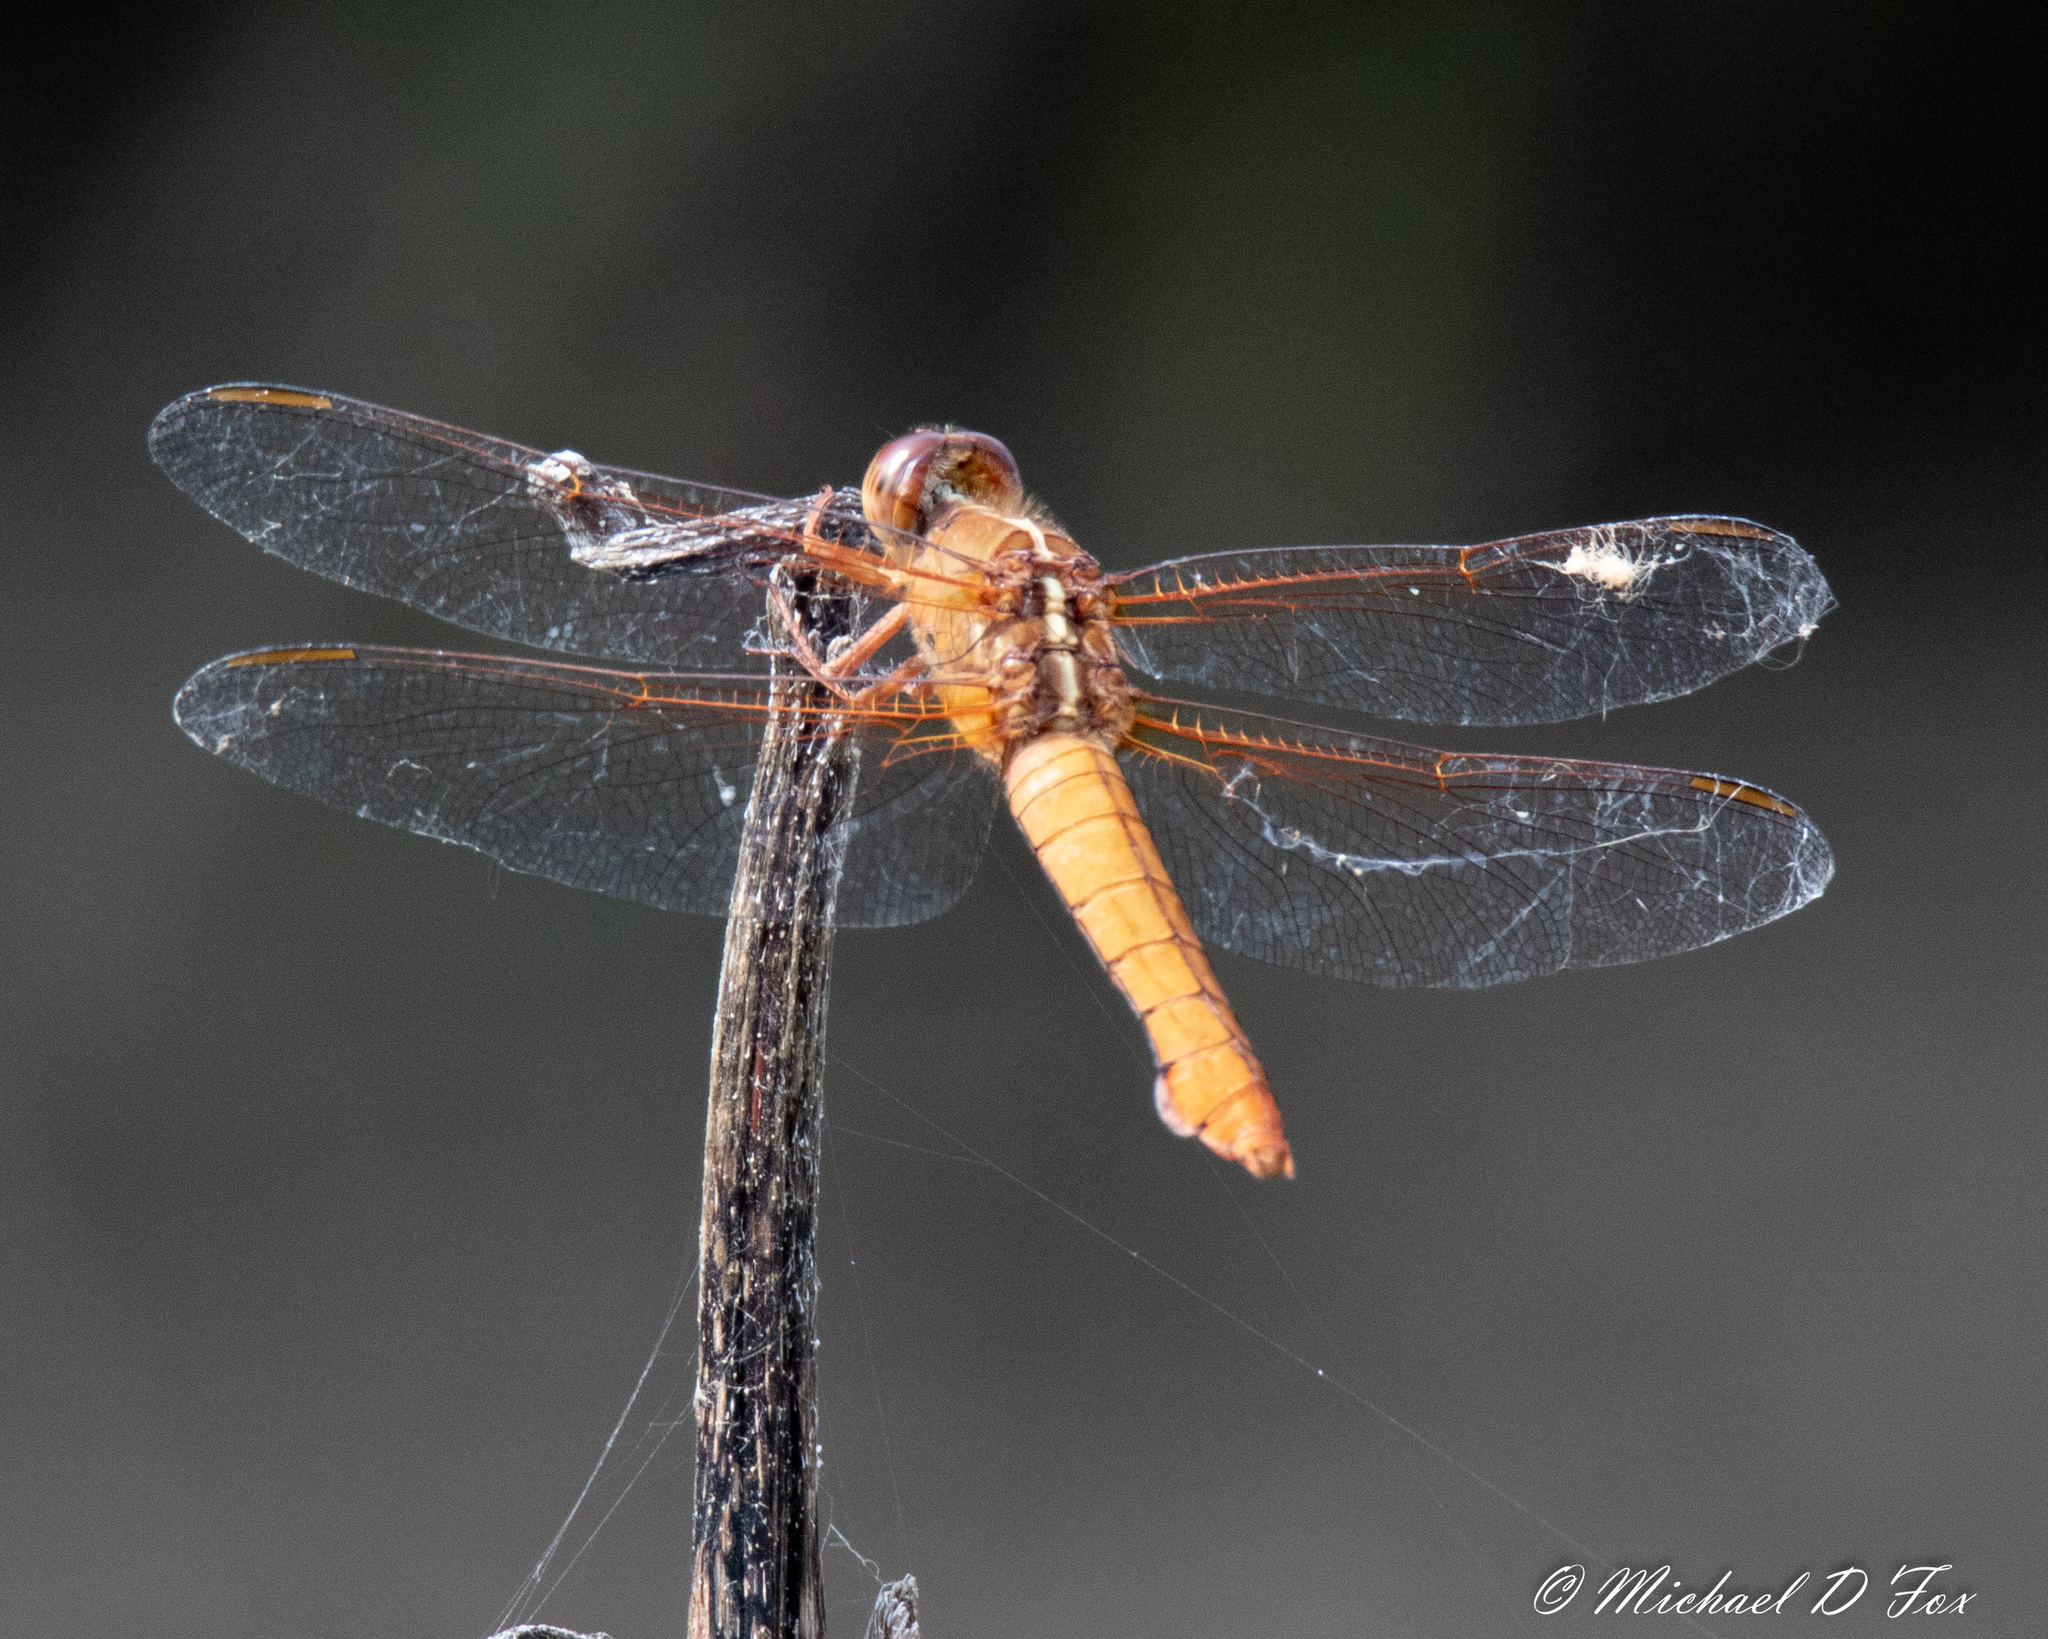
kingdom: Animalia
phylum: Arthropoda
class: Insecta
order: Odonata
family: Libellulidae
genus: Libellula
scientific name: Libellula croceipennis
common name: Neon skimmer
